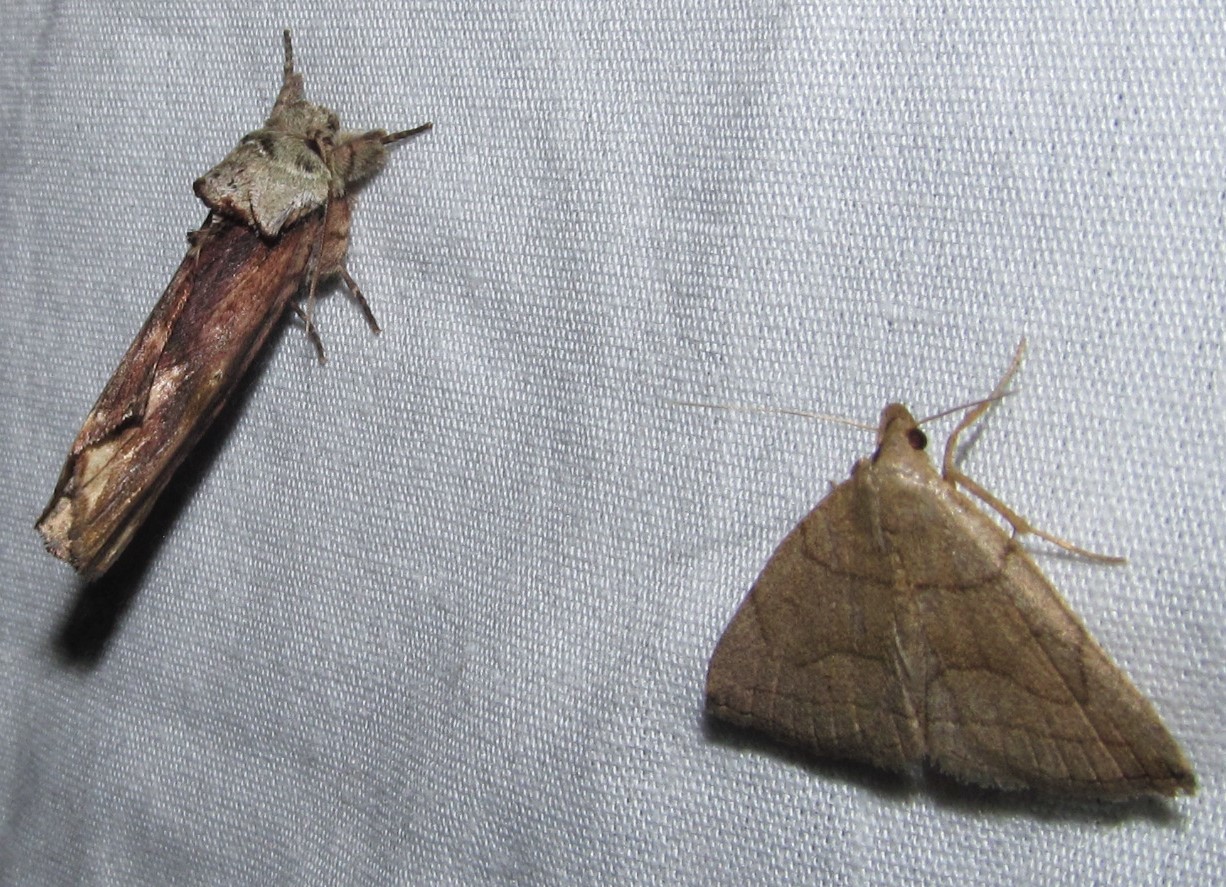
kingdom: Animalia
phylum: Arthropoda
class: Insecta
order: Lepidoptera
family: Erebidae
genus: Zanclognatha
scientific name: Zanclognatha cruralis
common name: Early fan-foot
